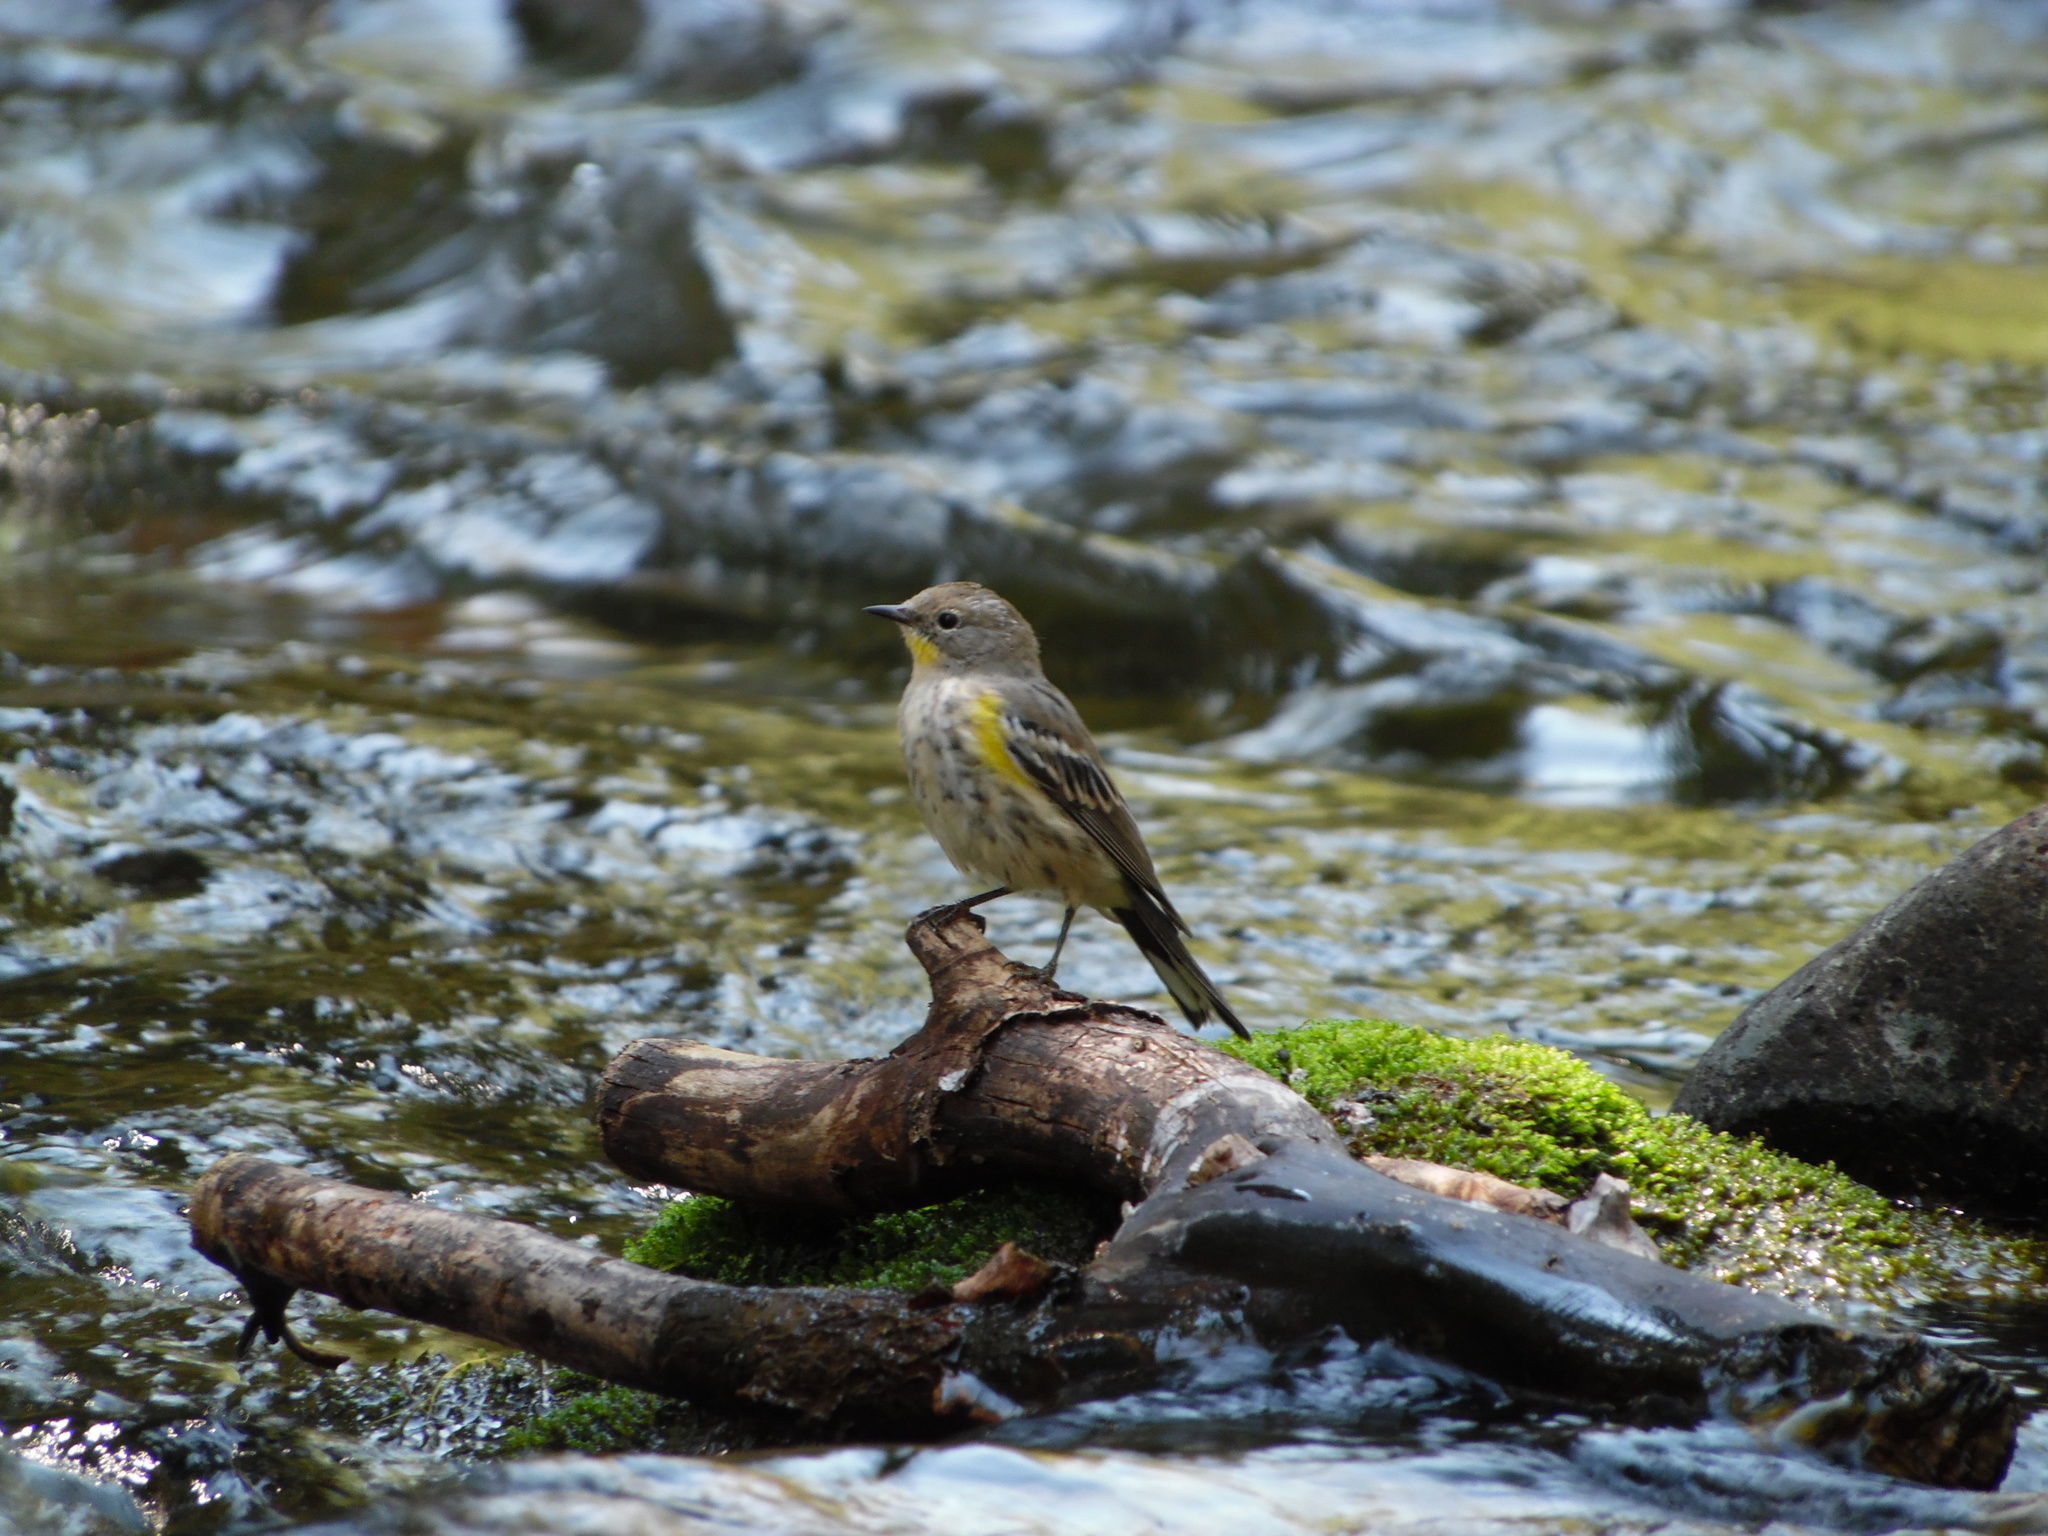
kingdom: Animalia
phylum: Chordata
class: Aves
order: Passeriformes
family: Parulidae
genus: Setophaga
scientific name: Setophaga coronata
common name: Myrtle warbler
